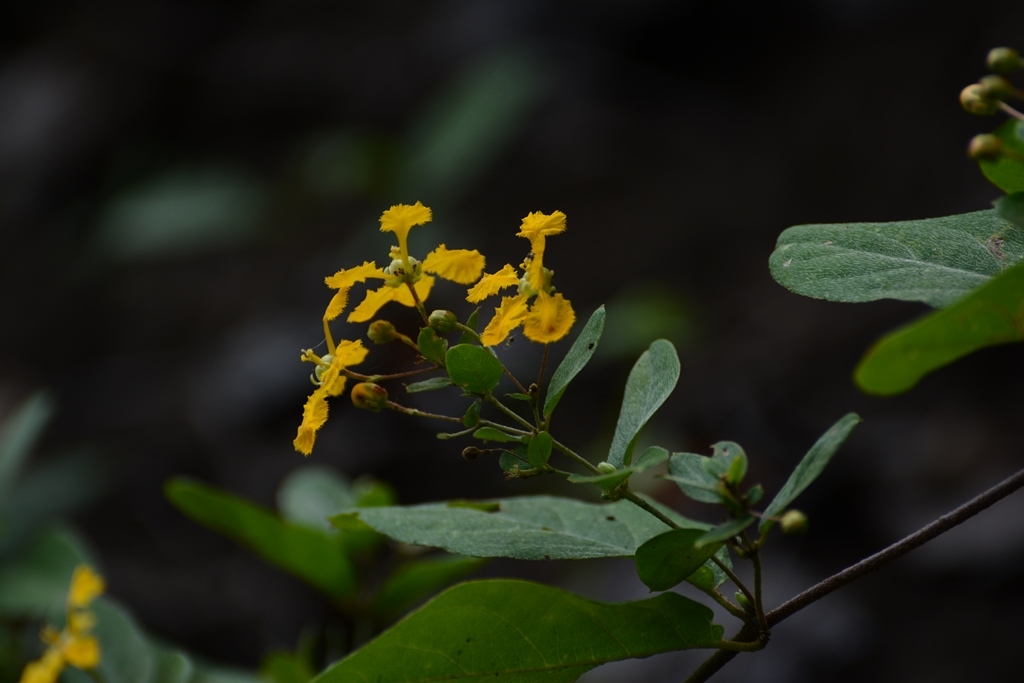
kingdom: Plantae
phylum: Tracheophyta
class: Magnoliopsida
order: Malpighiales
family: Malpighiaceae
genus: Gaudichaudia
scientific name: Gaudichaudia cynanchoides
